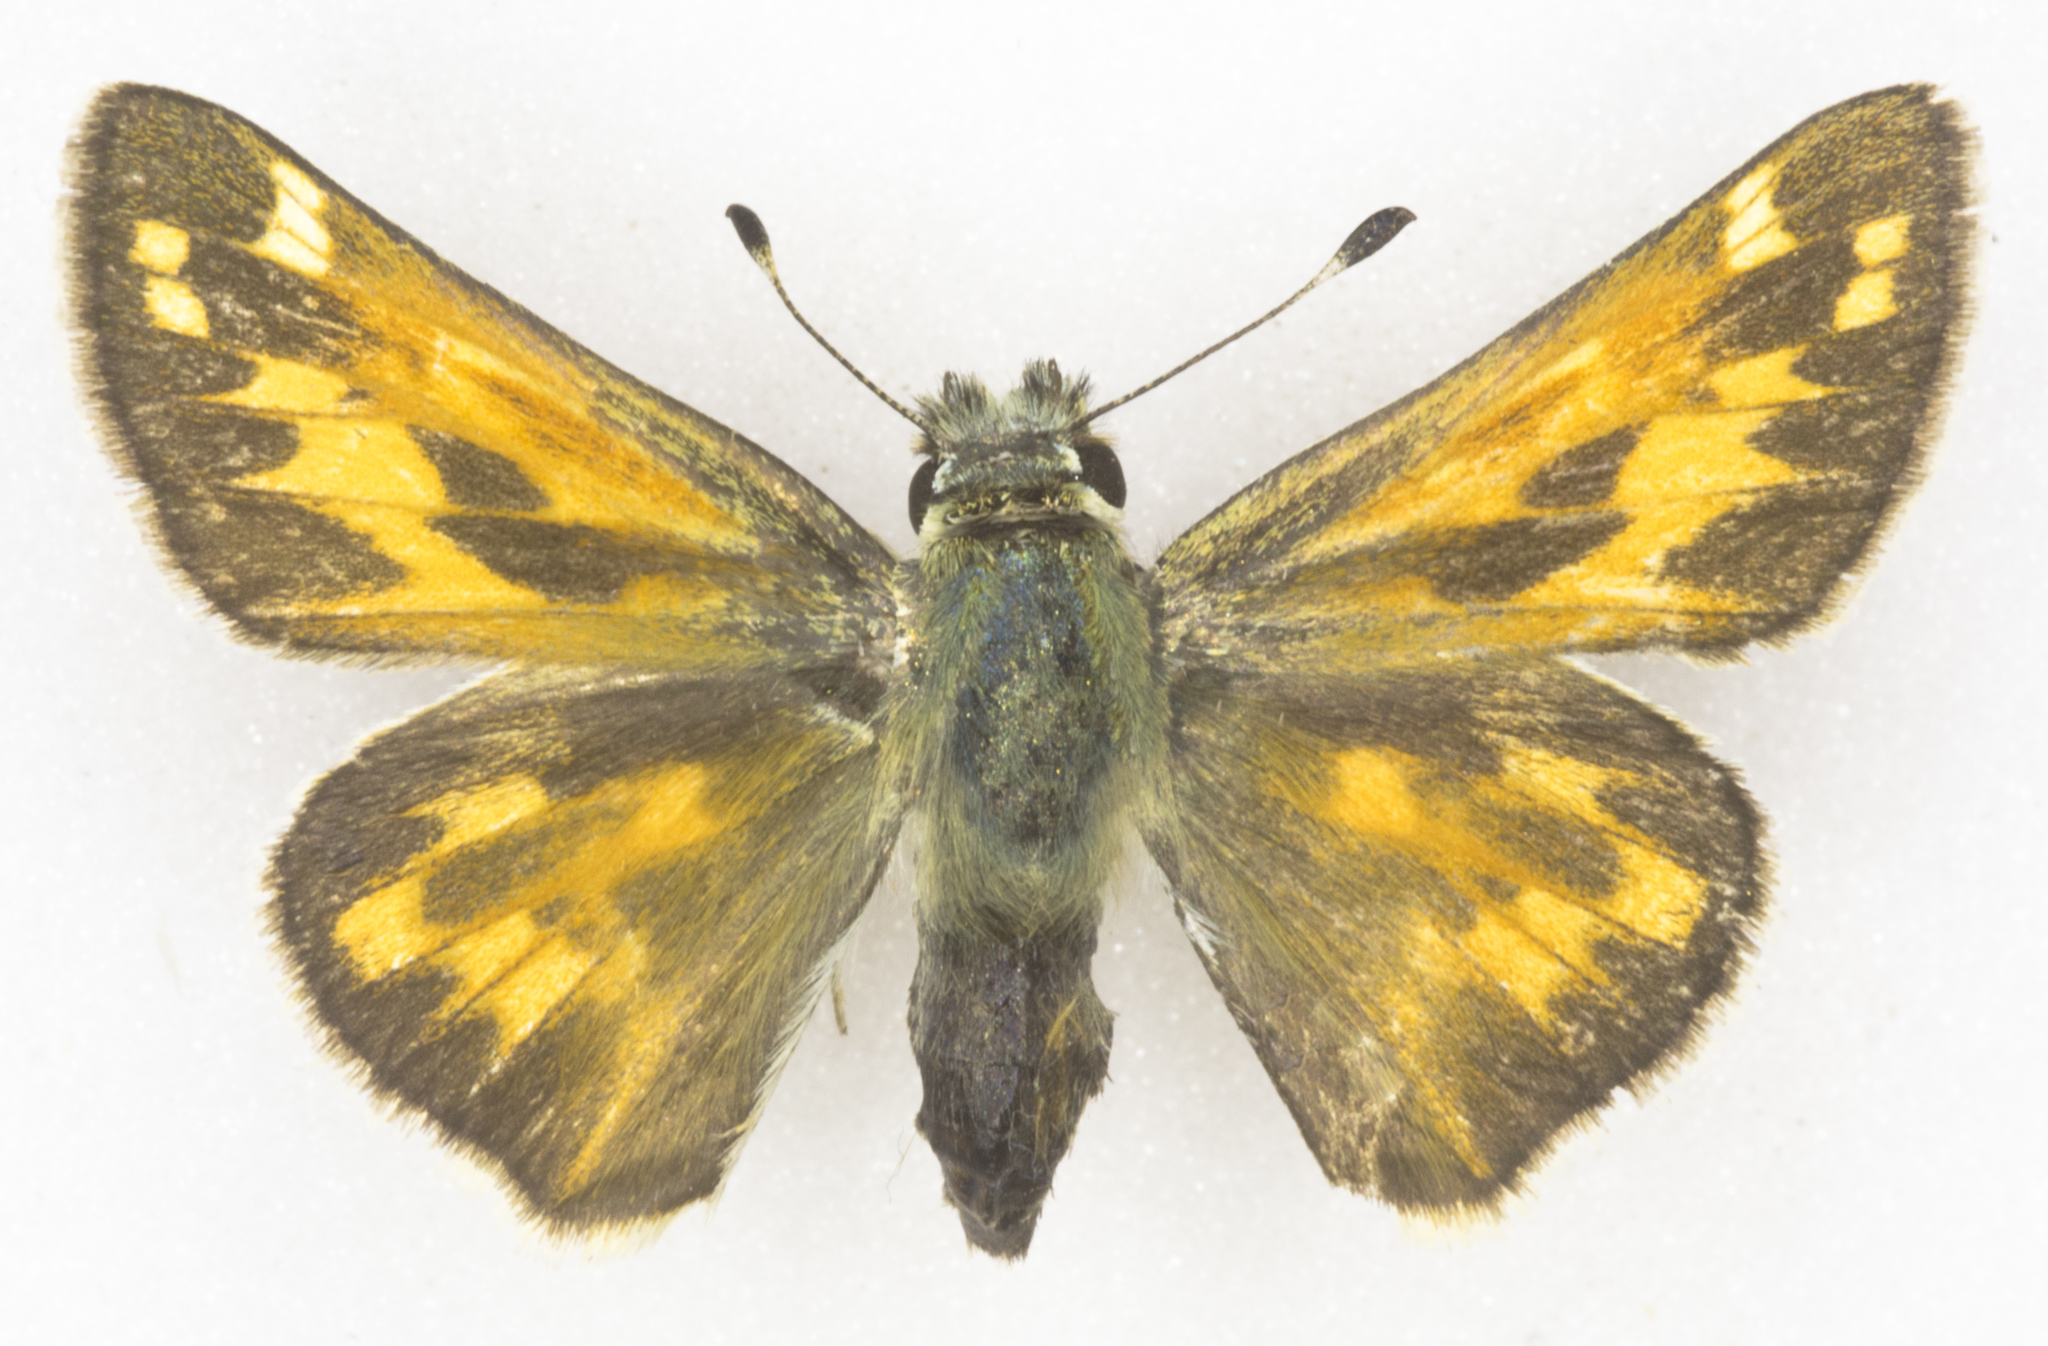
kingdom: Animalia
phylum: Arthropoda
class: Insecta
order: Lepidoptera
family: Hesperiidae
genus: Hesperia
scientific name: Hesperia juba
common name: Juba skipper
